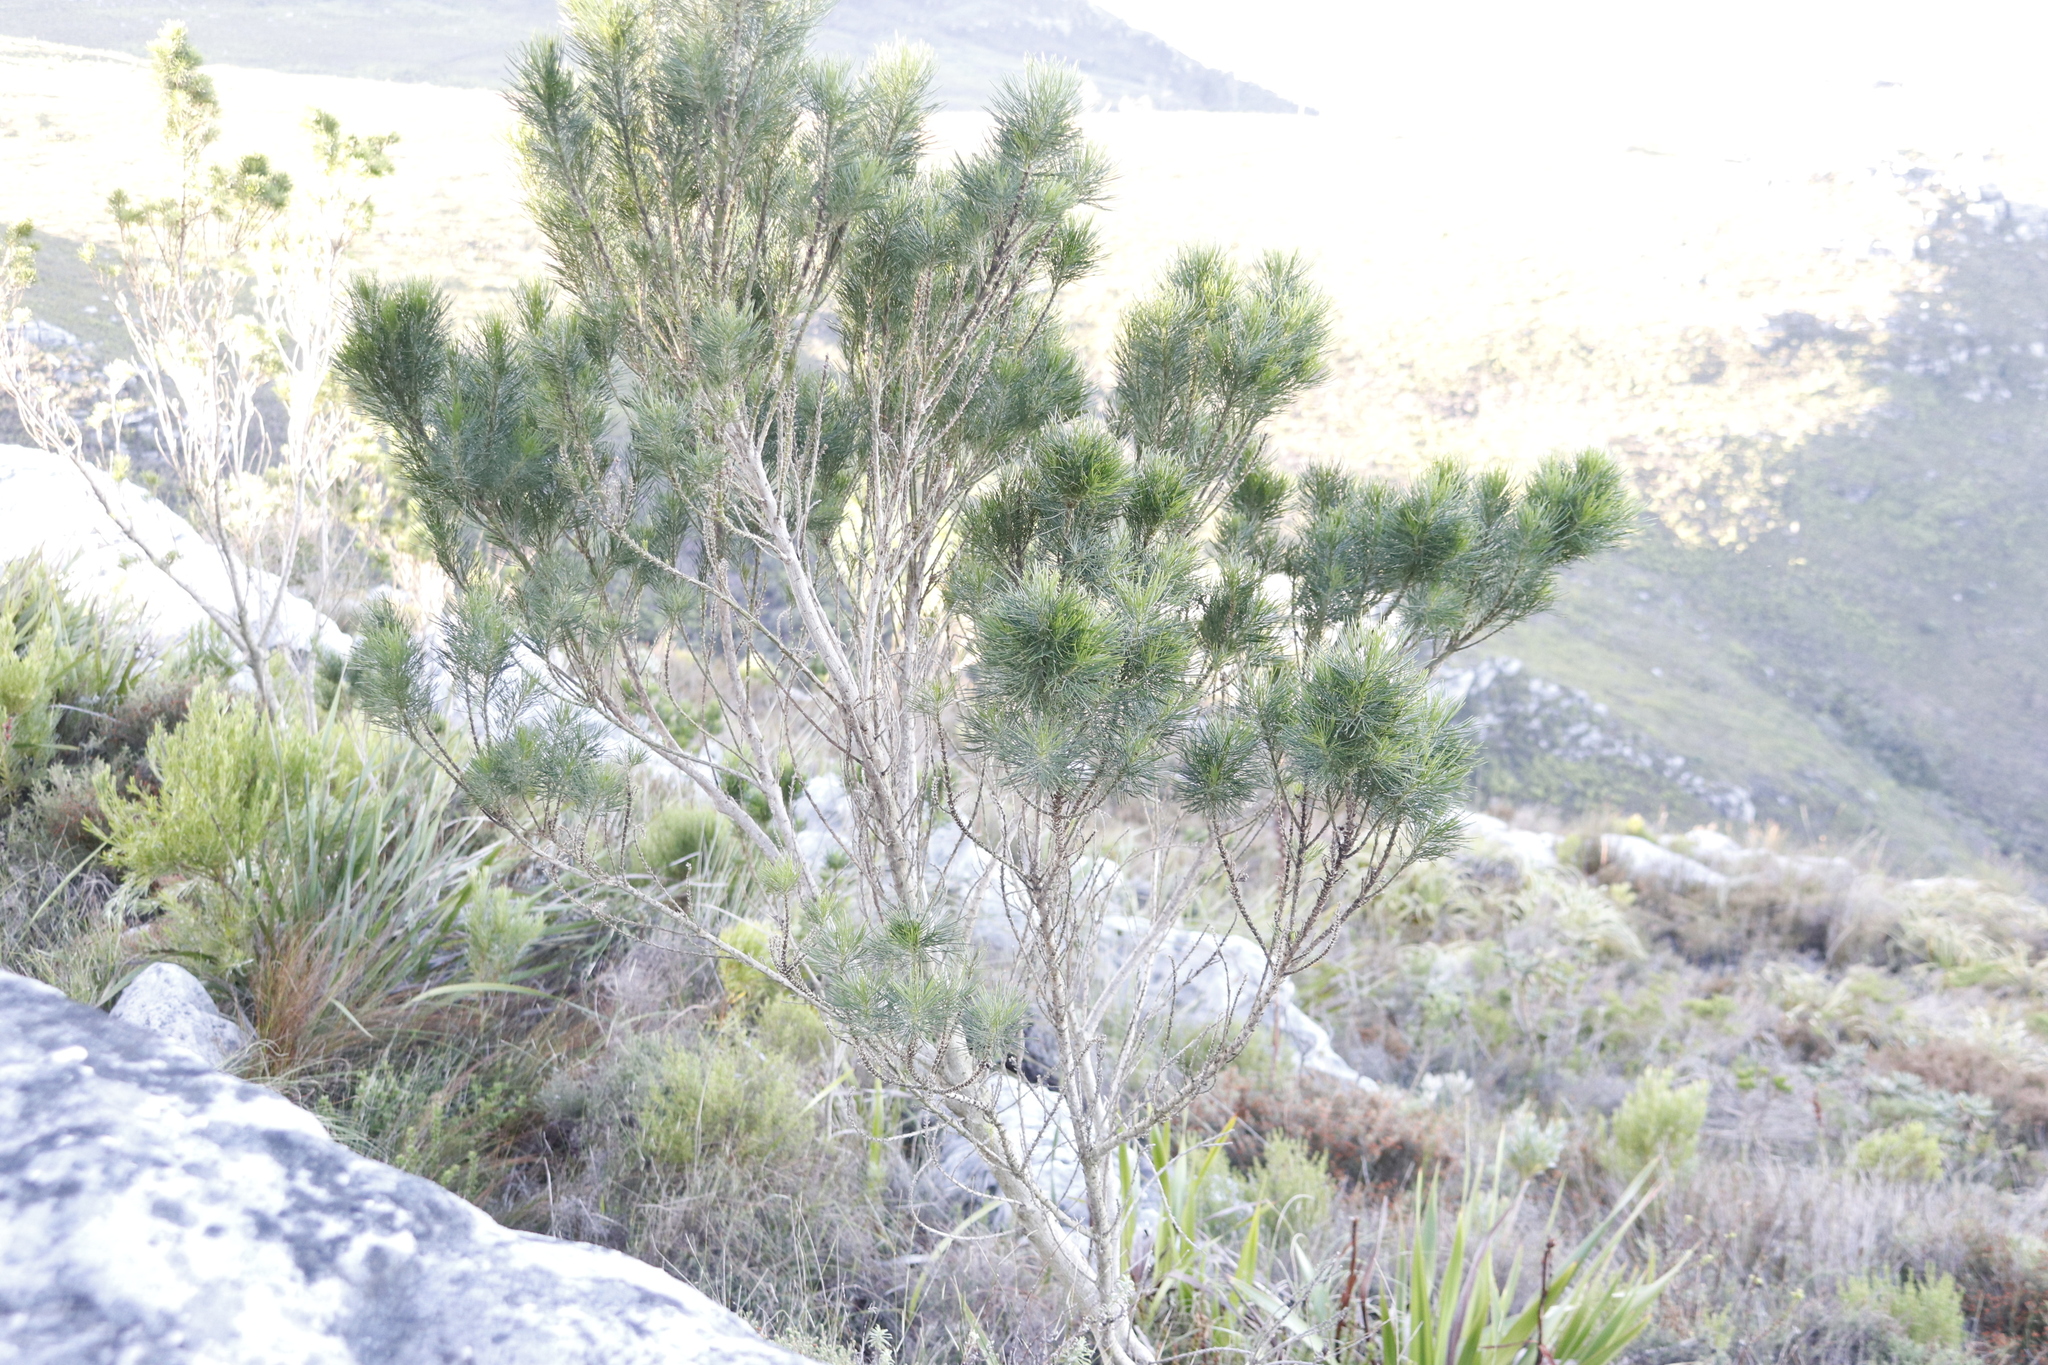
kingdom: Plantae
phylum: Tracheophyta
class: Magnoliopsida
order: Fabales
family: Fabaceae
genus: Psoralea
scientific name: Psoralea pinnata
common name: African scurfpea
